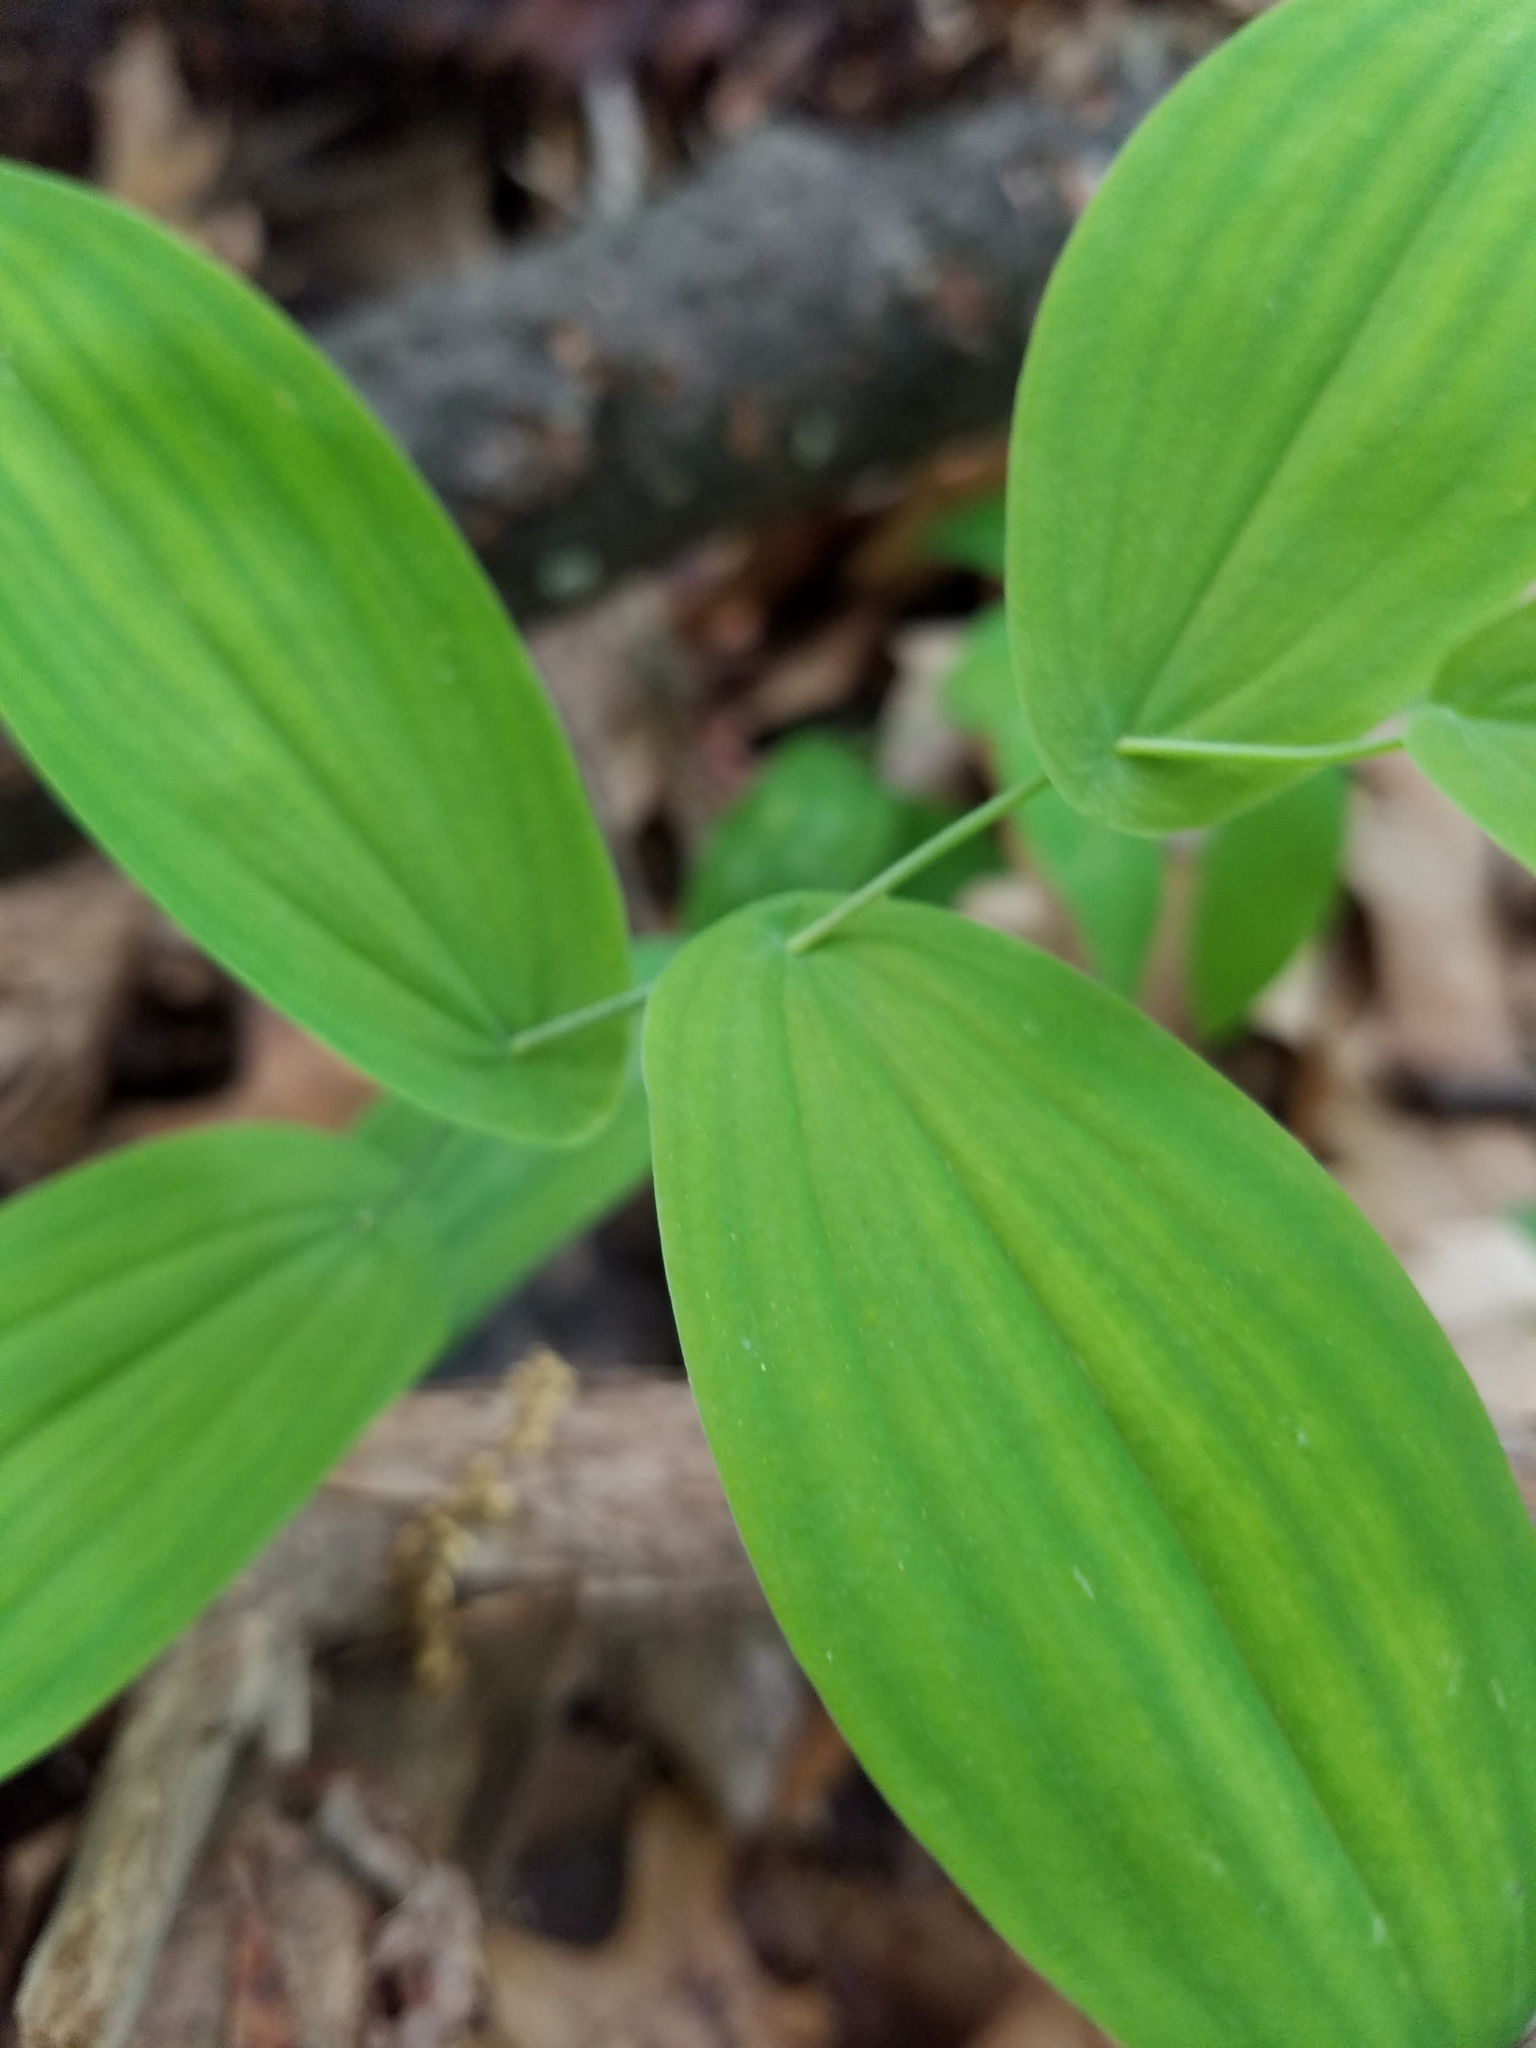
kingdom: Plantae
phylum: Tracheophyta
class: Liliopsida
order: Liliales
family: Colchicaceae
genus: Uvularia
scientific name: Uvularia perfoliata
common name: Perfoliate bellwort
